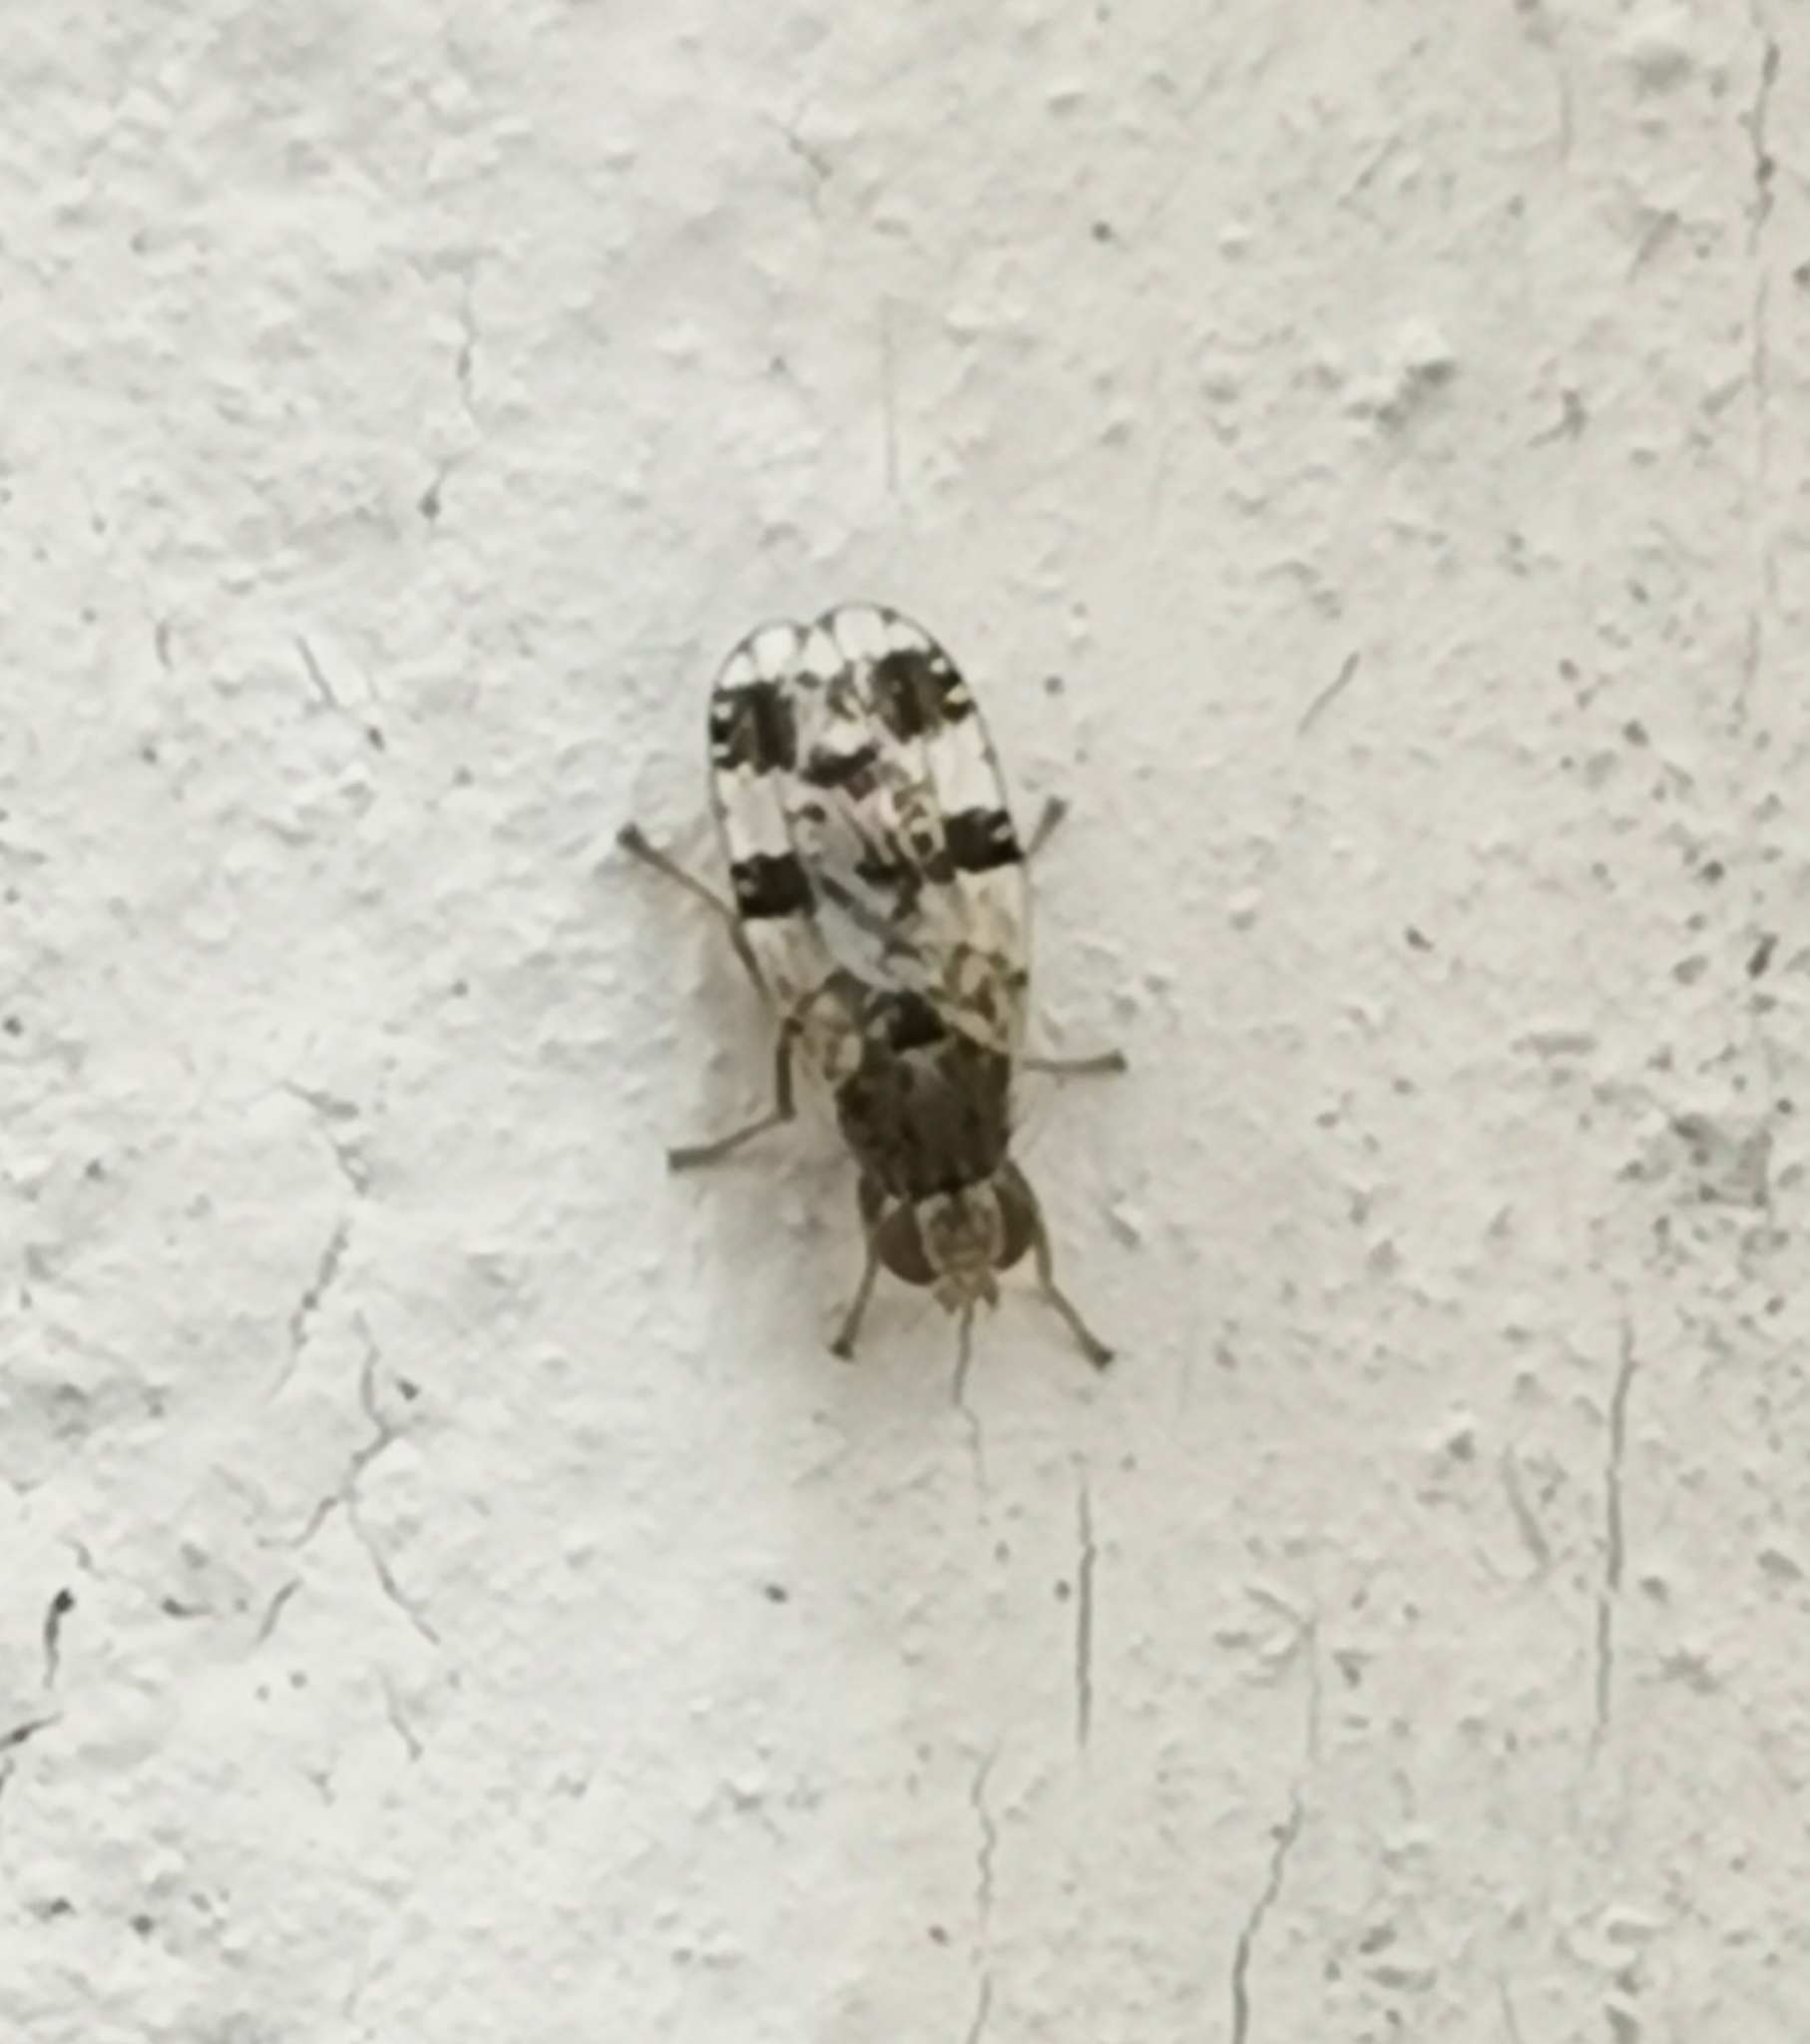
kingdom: Animalia
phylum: Arthropoda
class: Insecta
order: Diptera
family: Tephritidae
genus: Tephritis
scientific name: Tephritis dilacerata
